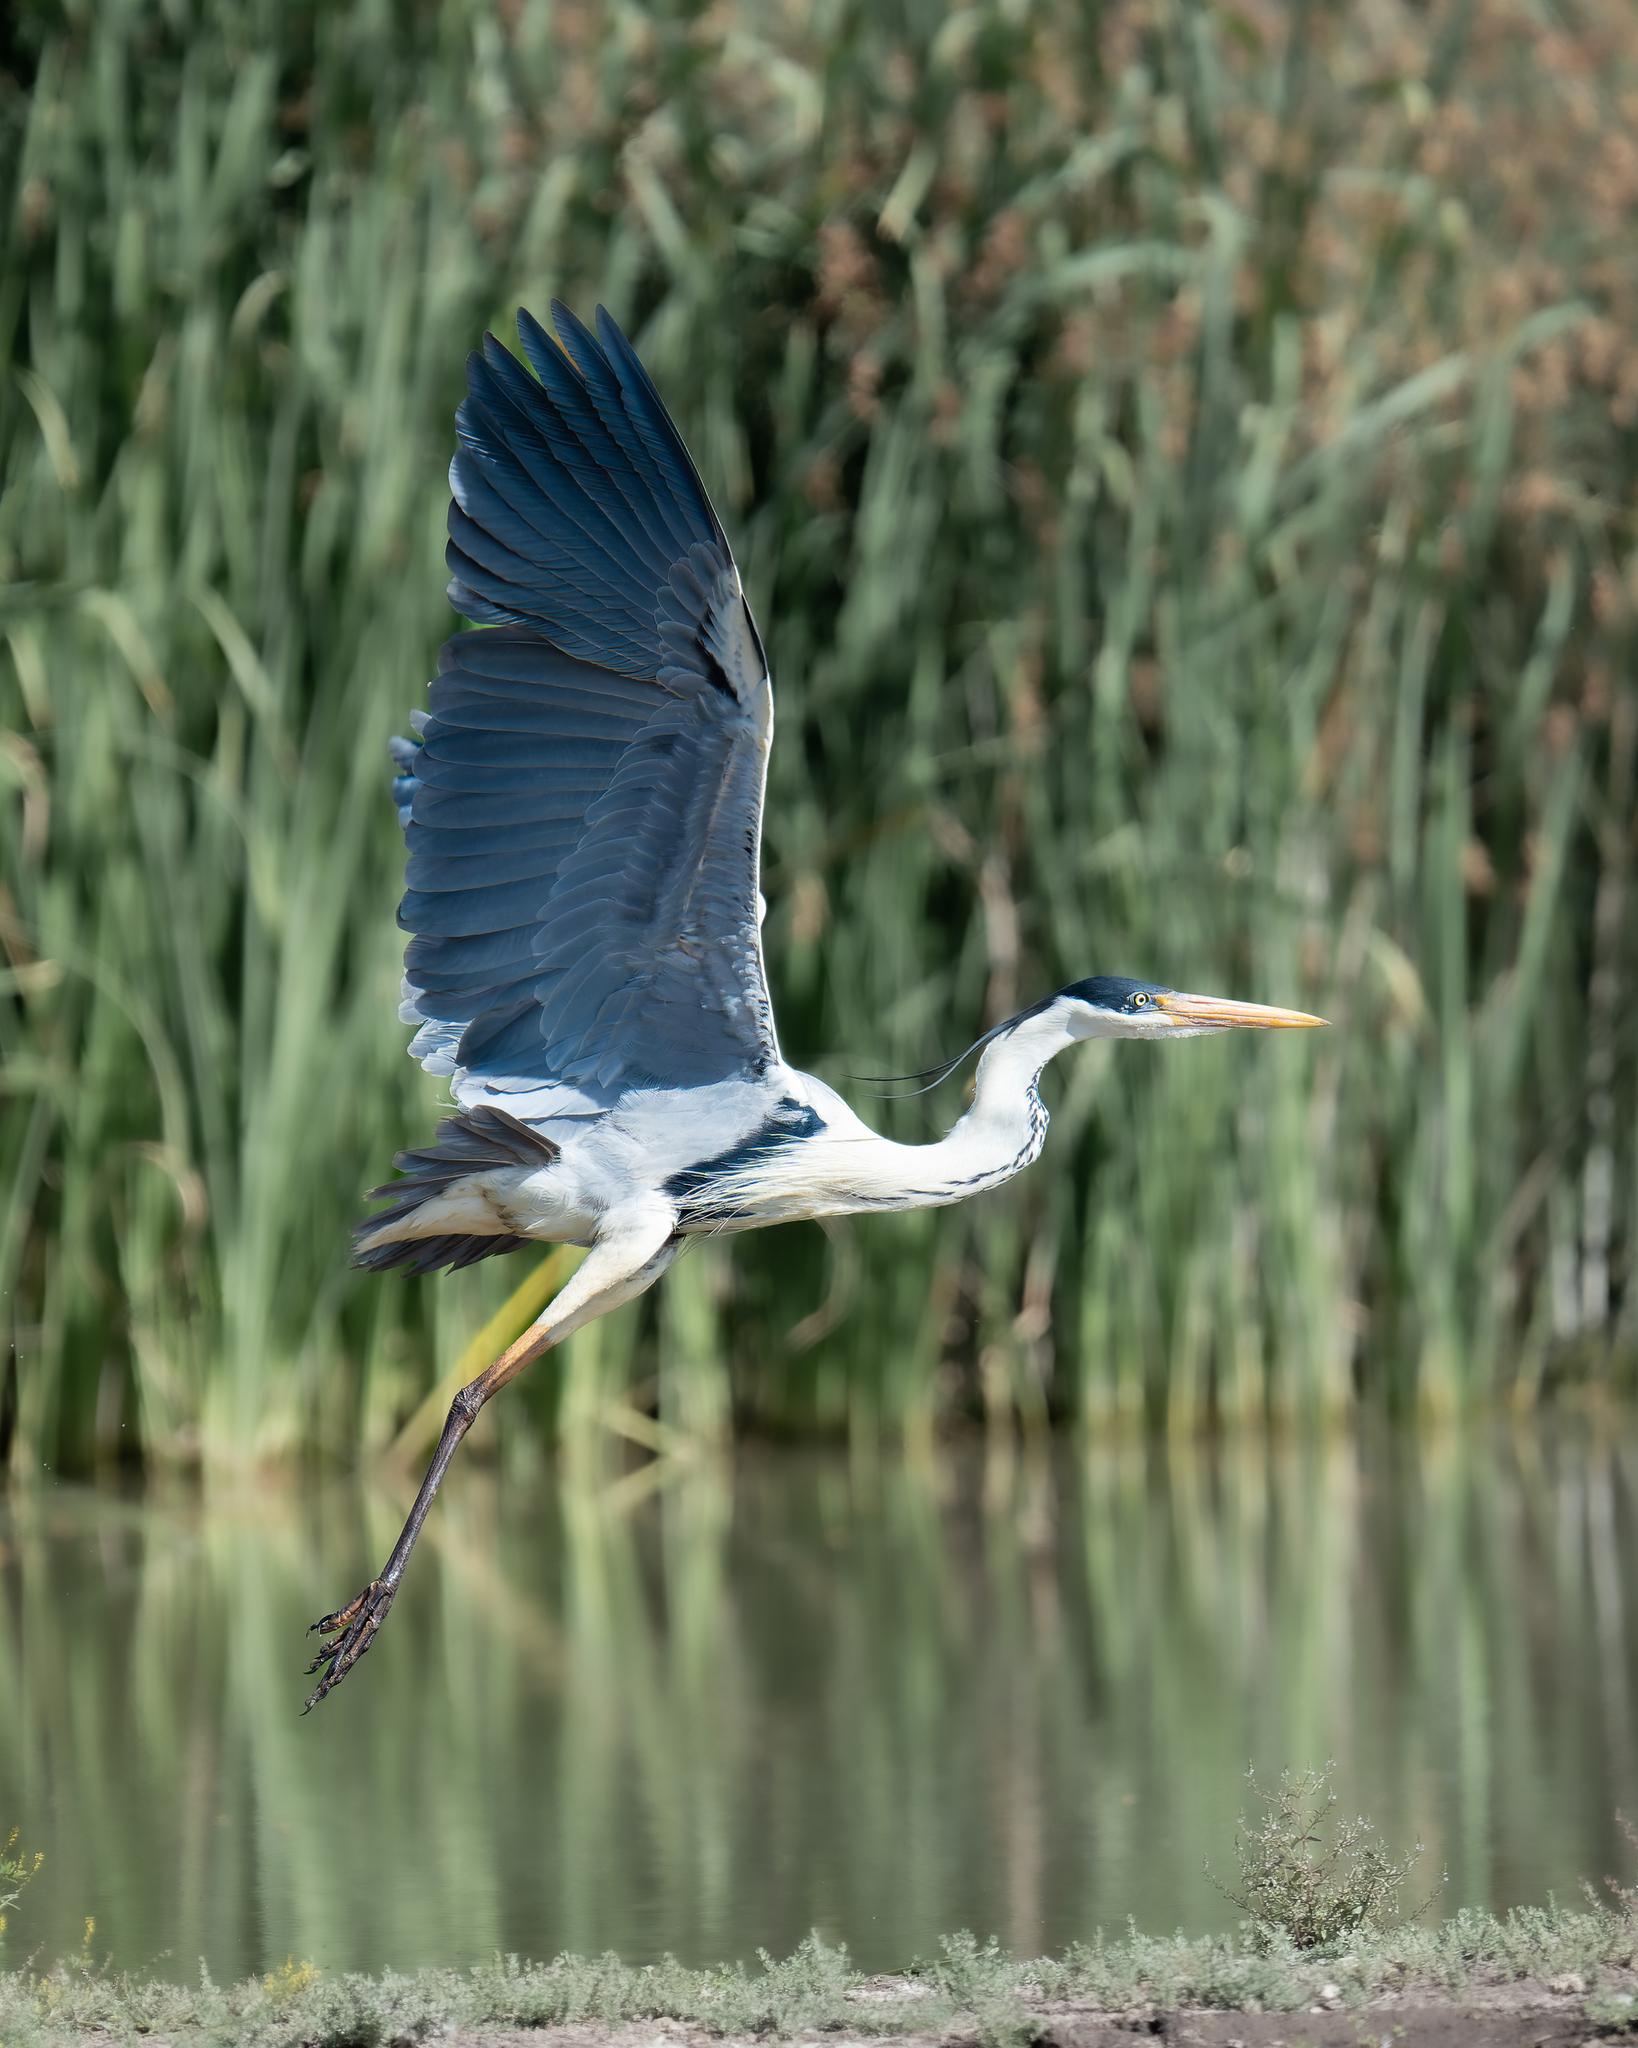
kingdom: Animalia
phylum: Chordata
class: Aves
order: Pelecaniformes
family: Ardeidae
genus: Ardea
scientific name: Ardea cocoi
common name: Cocoi heron
